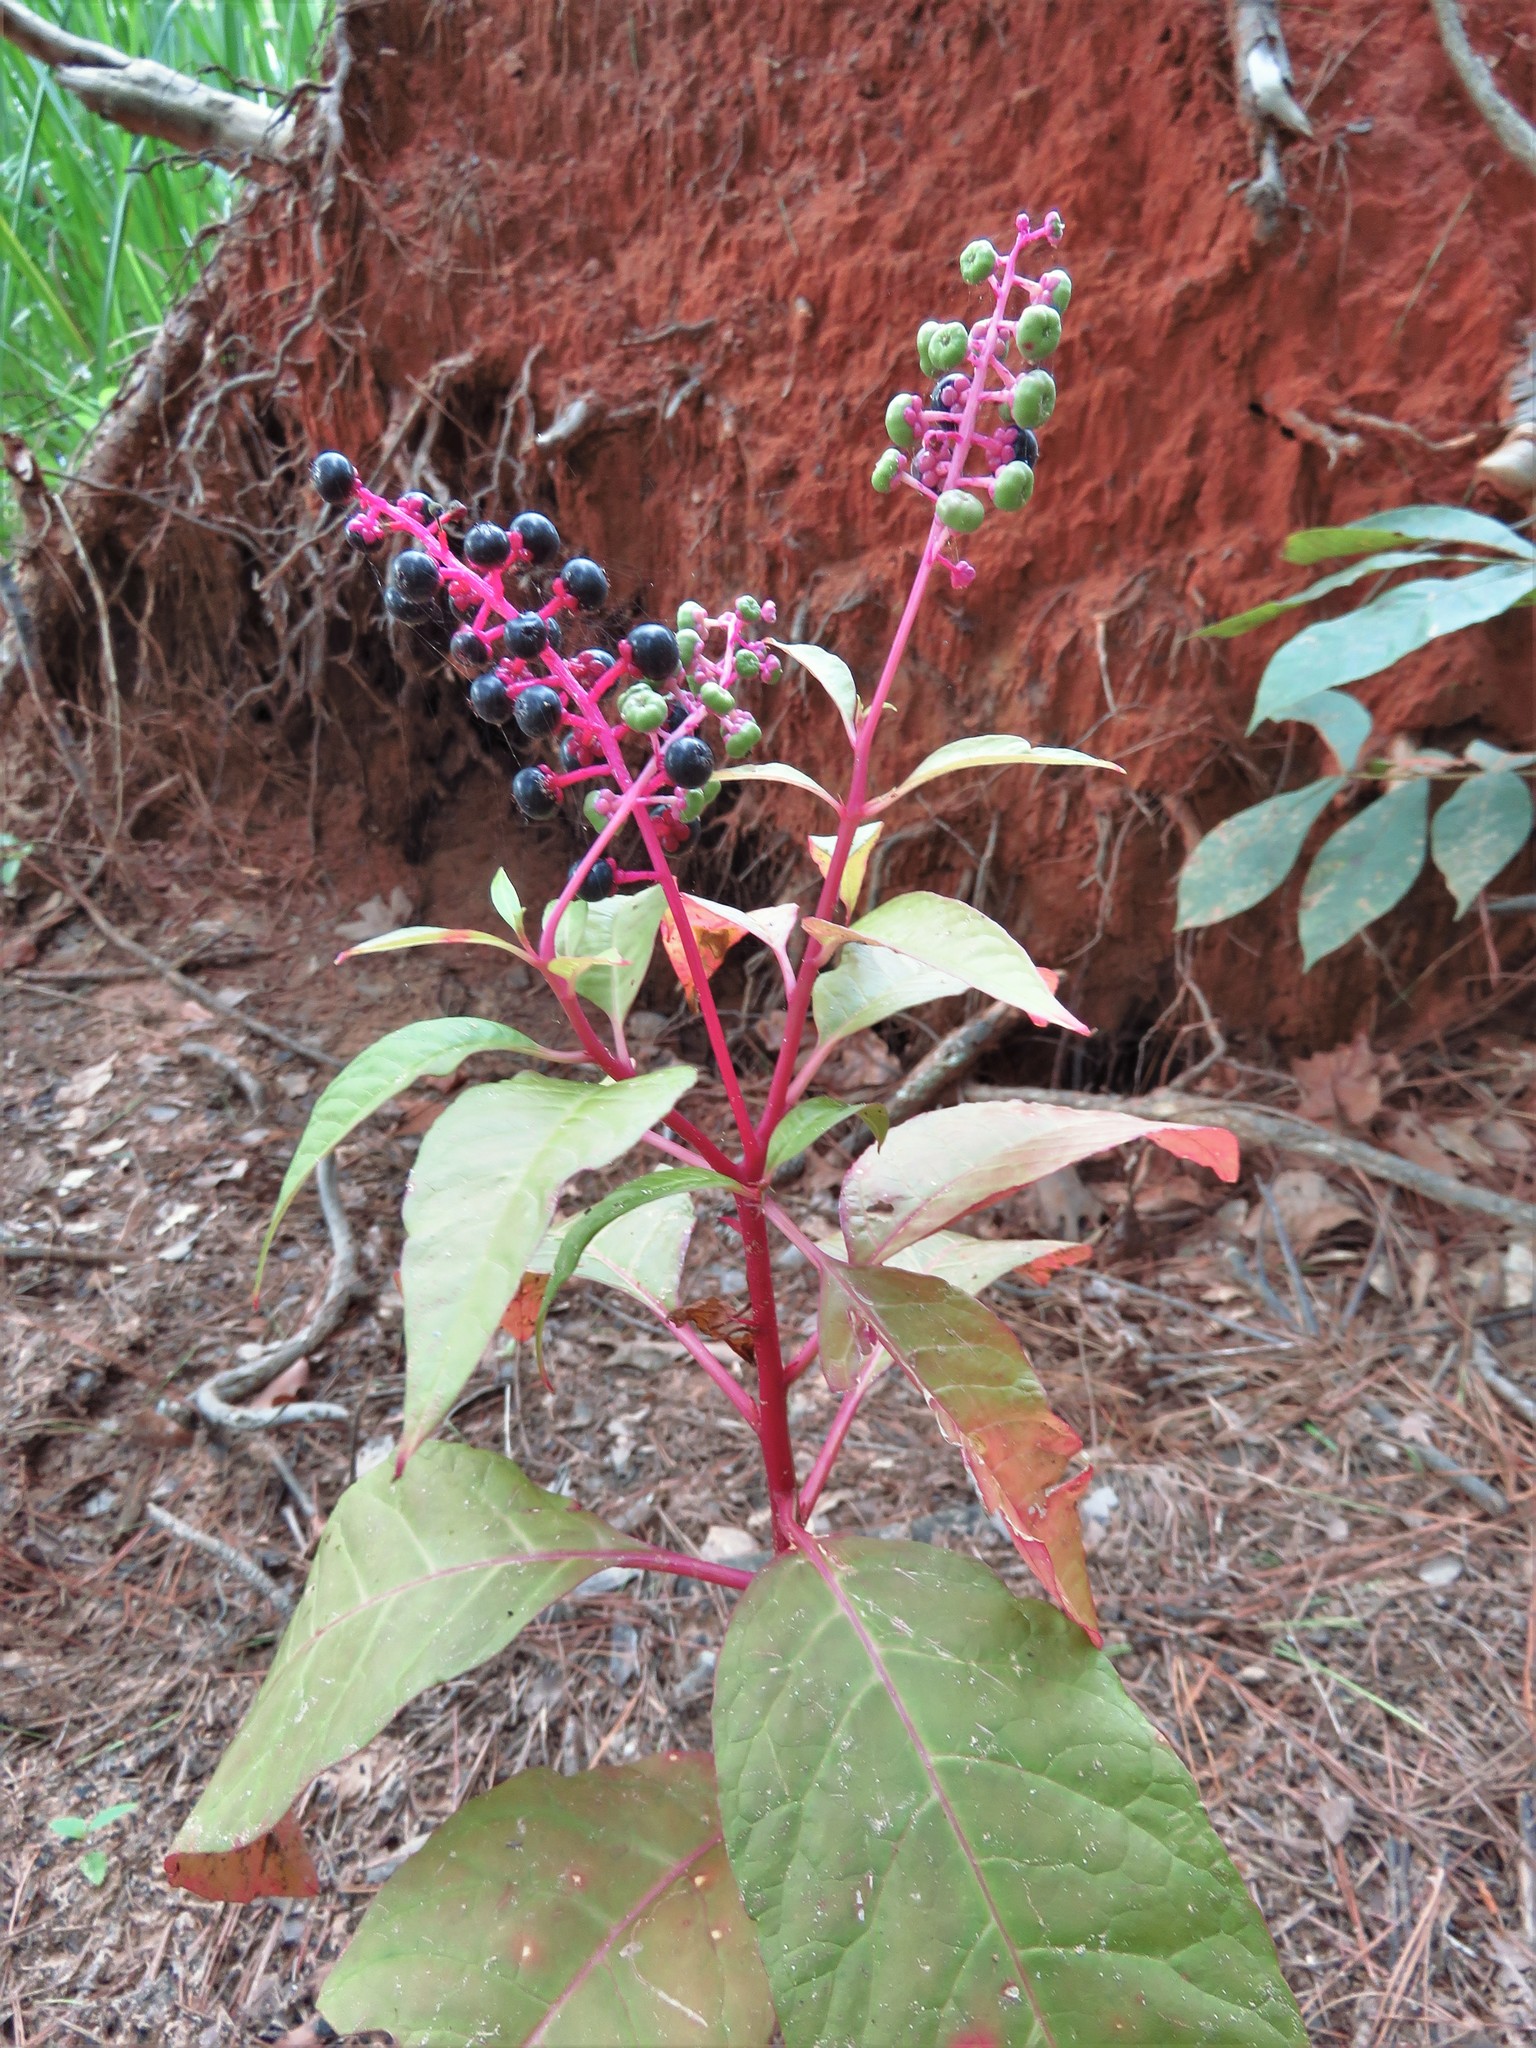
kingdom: Plantae
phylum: Tracheophyta
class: Magnoliopsida
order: Caryophyllales
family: Phytolaccaceae
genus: Phytolacca
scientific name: Phytolacca americana
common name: American pokeweed
